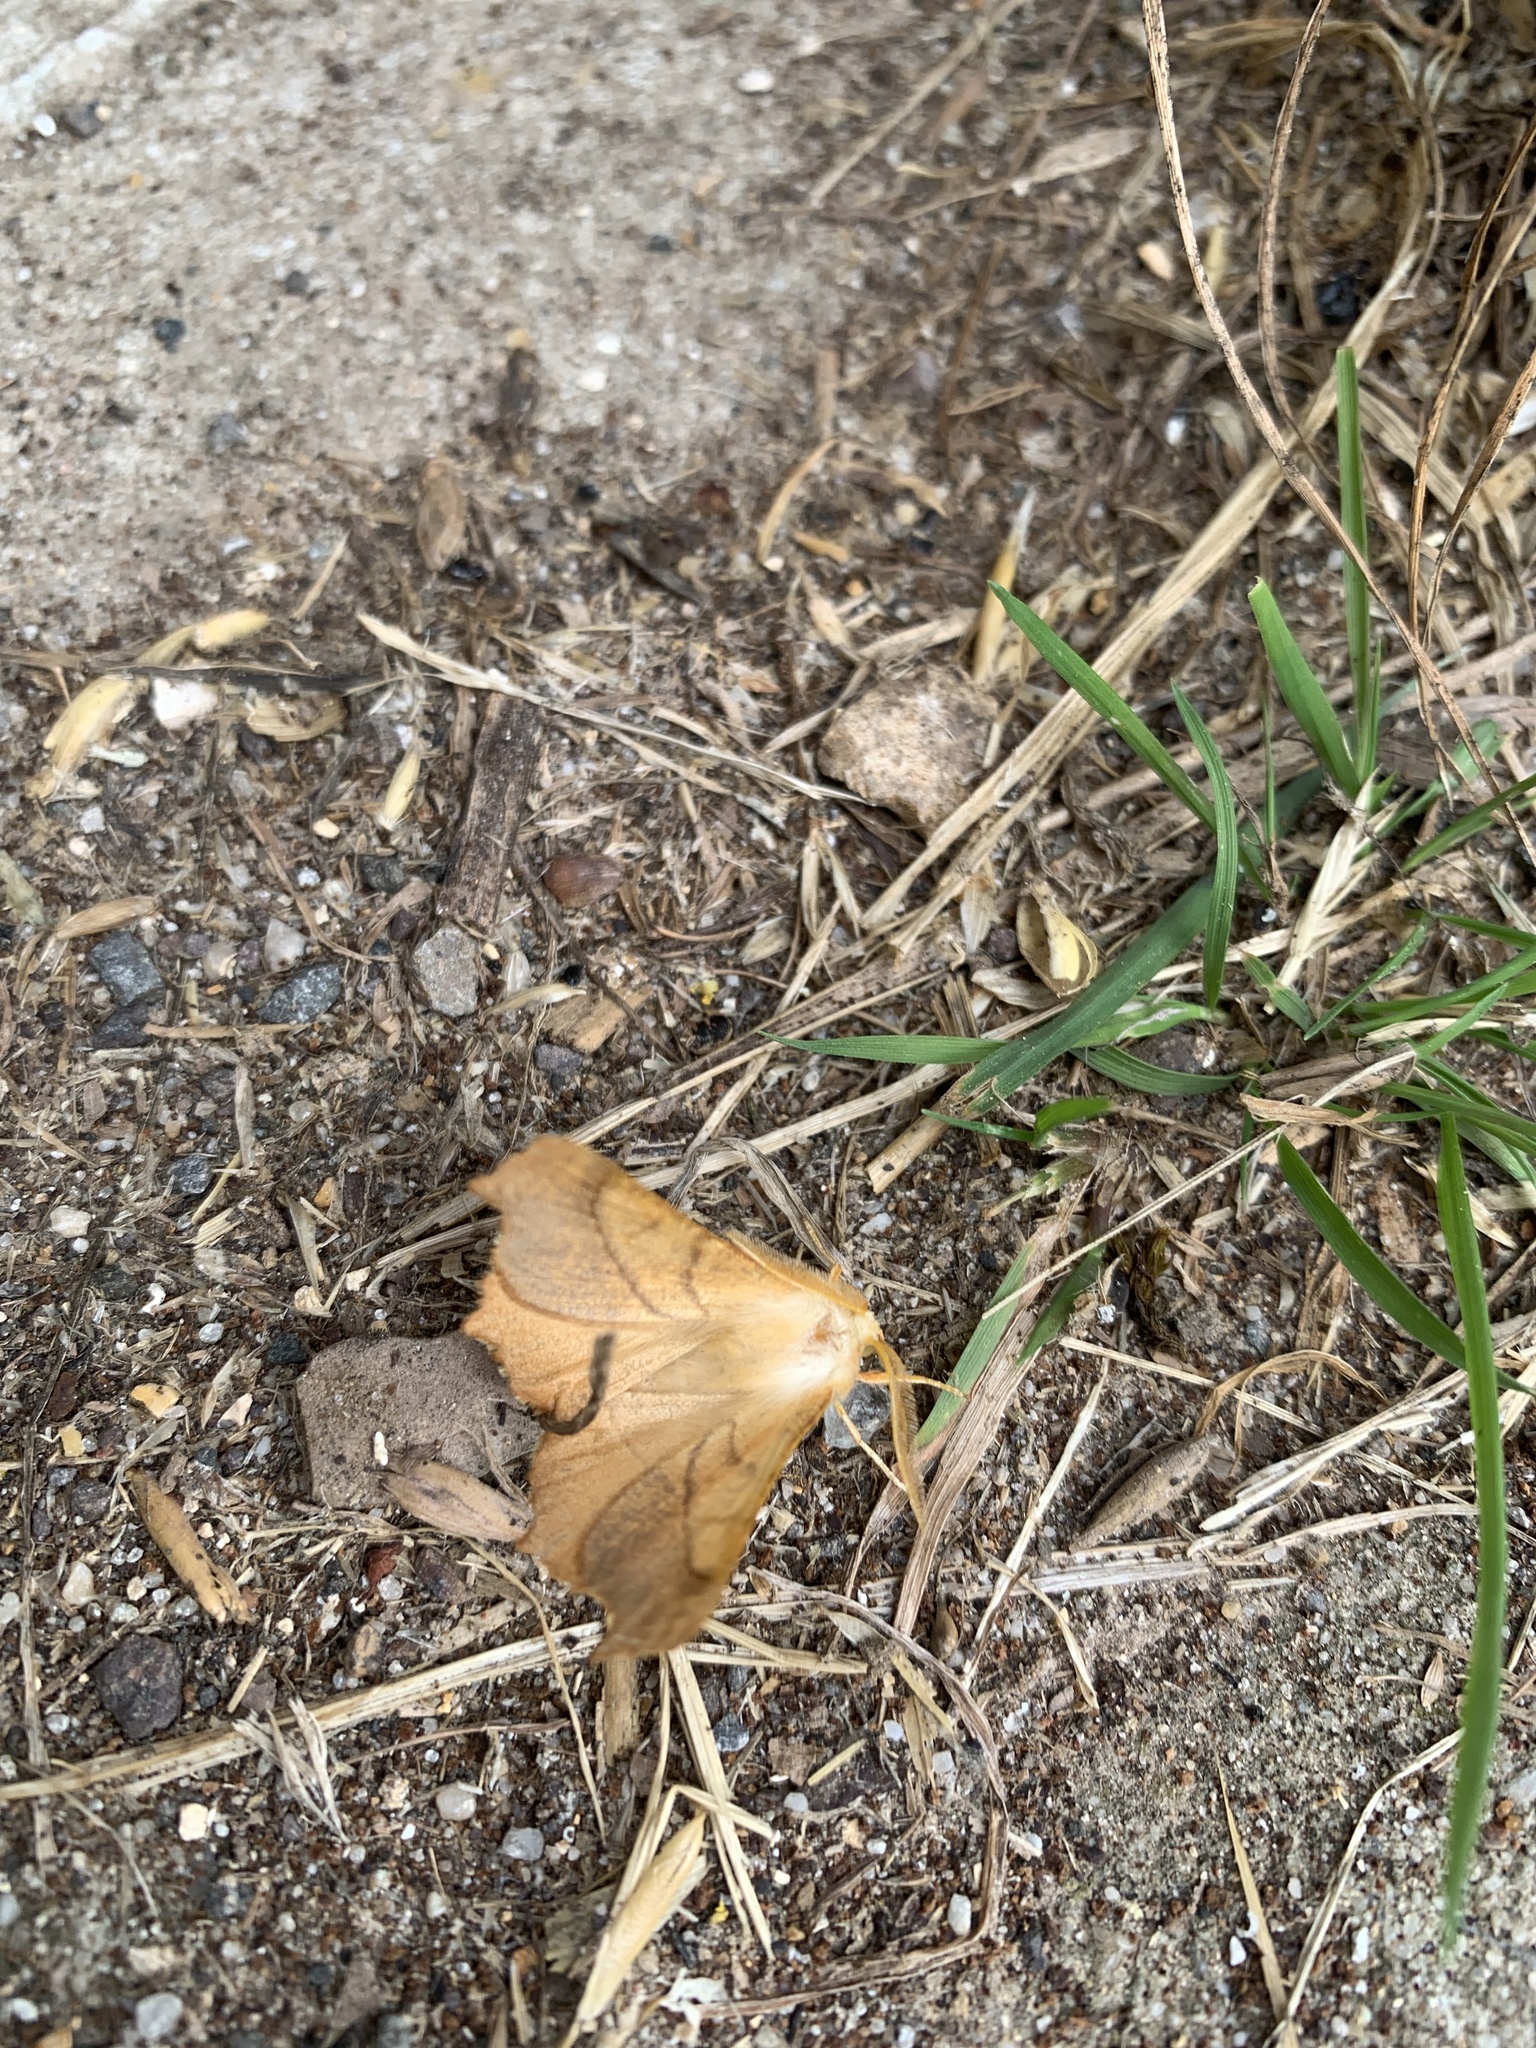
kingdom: Animalia
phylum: Arthropoda
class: Insecta
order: Lepidoptera
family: Geometridae
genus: Ennomos
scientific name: Ennomos fuscantaria
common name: Dusky thorn
